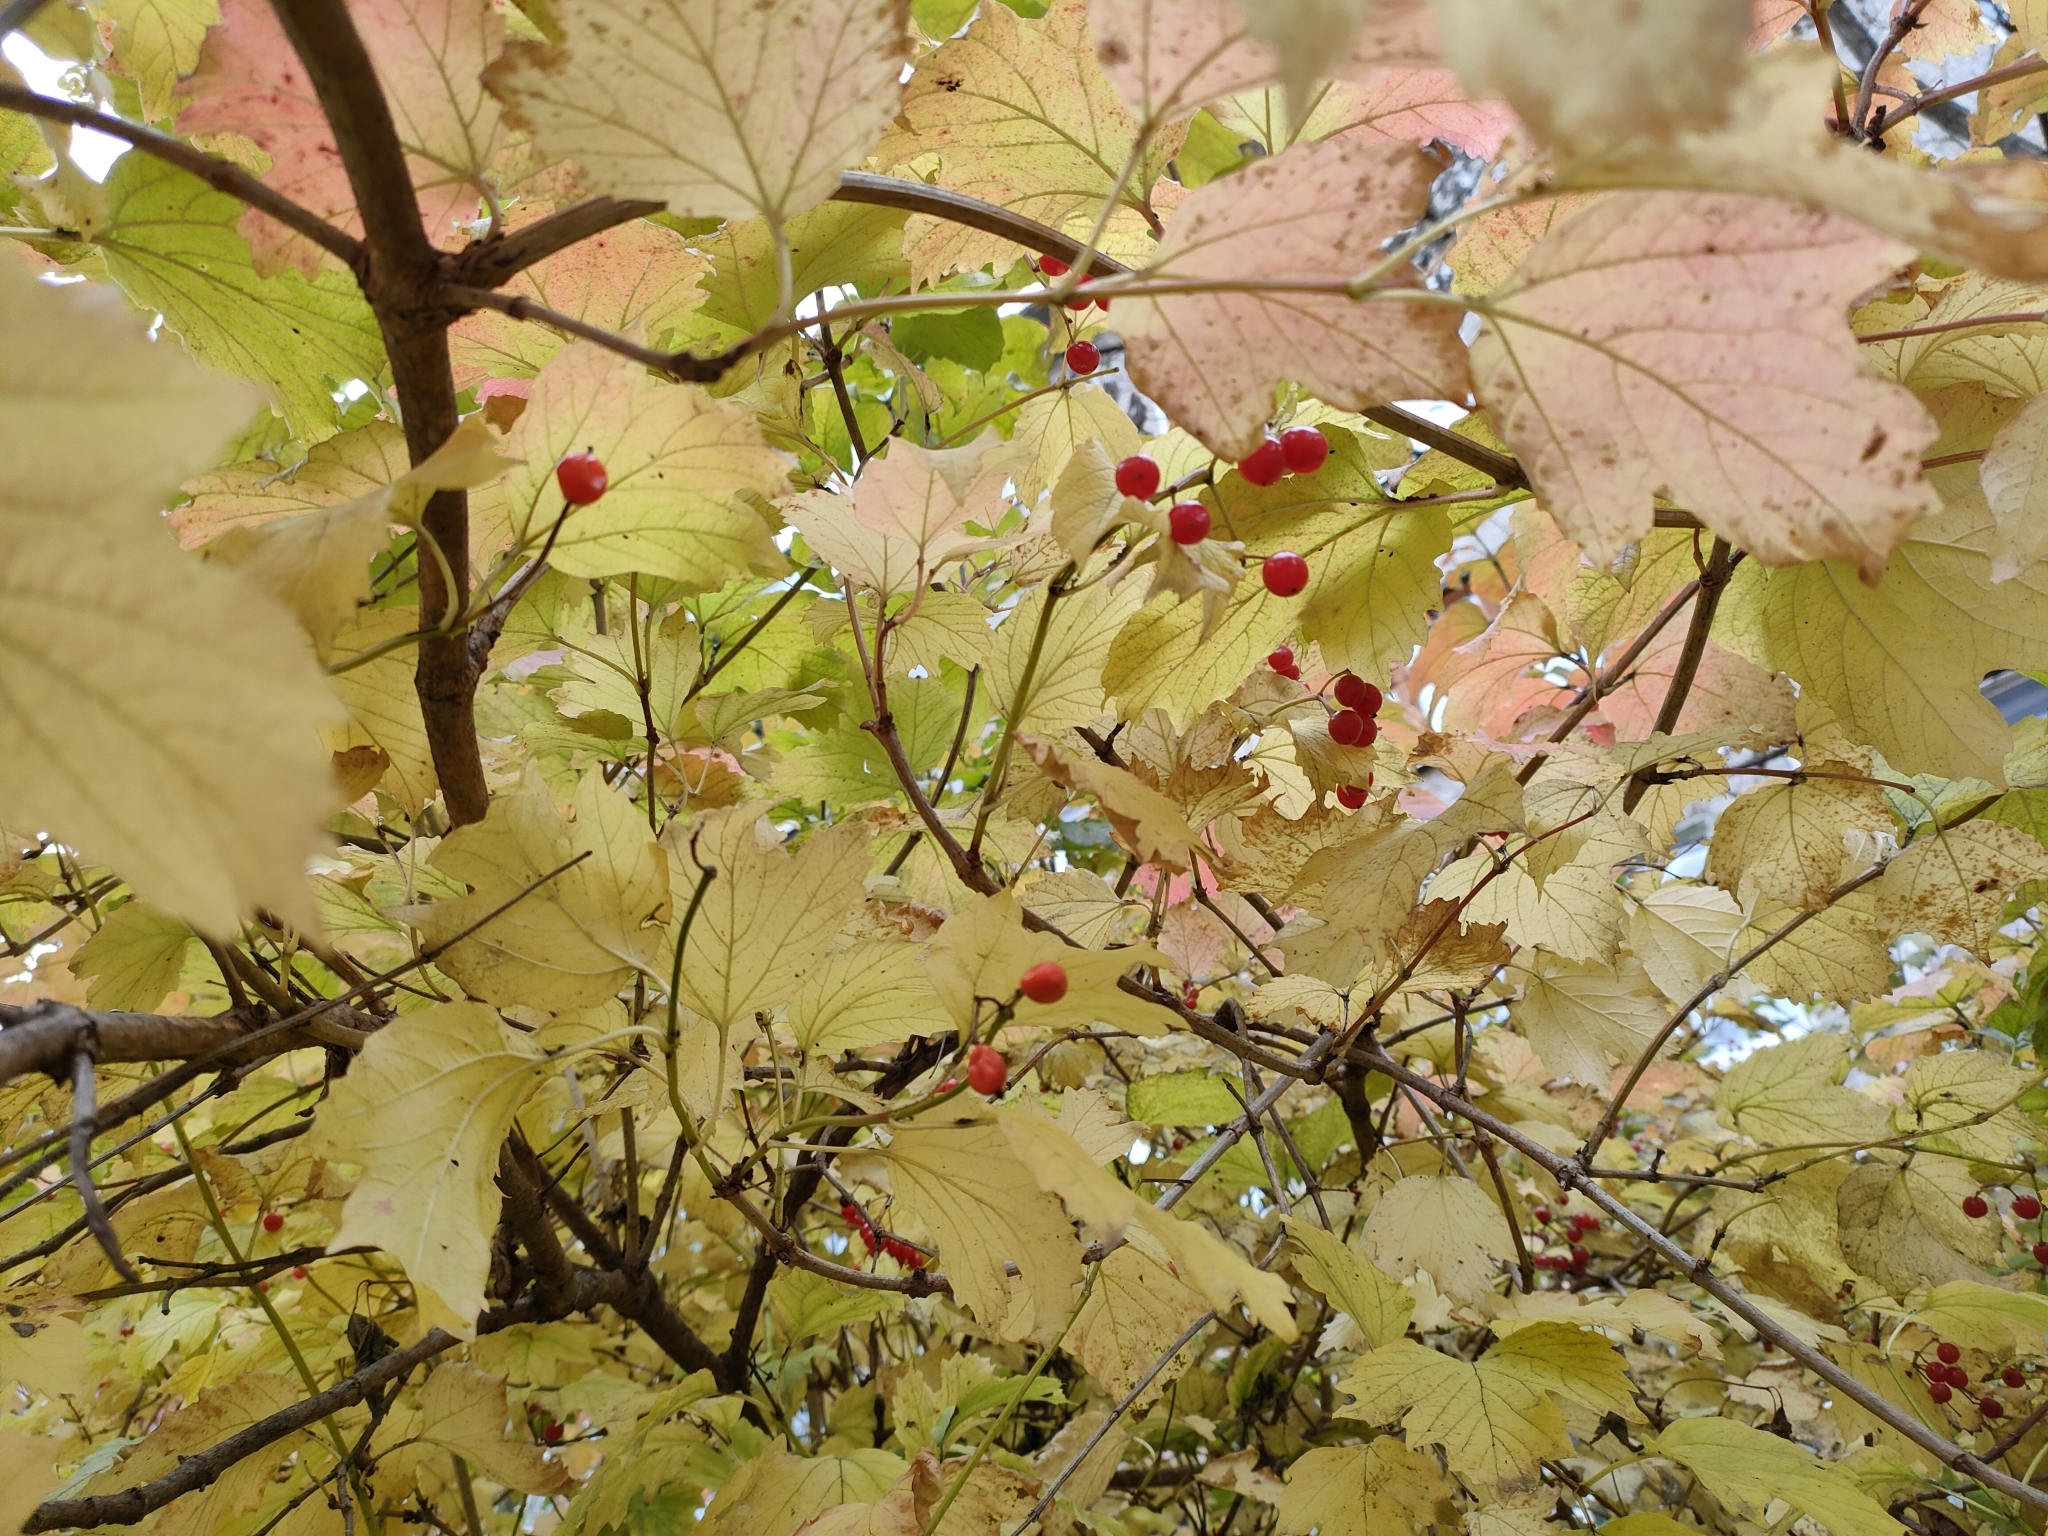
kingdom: Plantae
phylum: Tracheophyta
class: Magnoliopsida
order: Dipsacales
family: Viburnaceae
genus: Viburnum
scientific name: Viburnum opulus
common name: Guelder-rose
